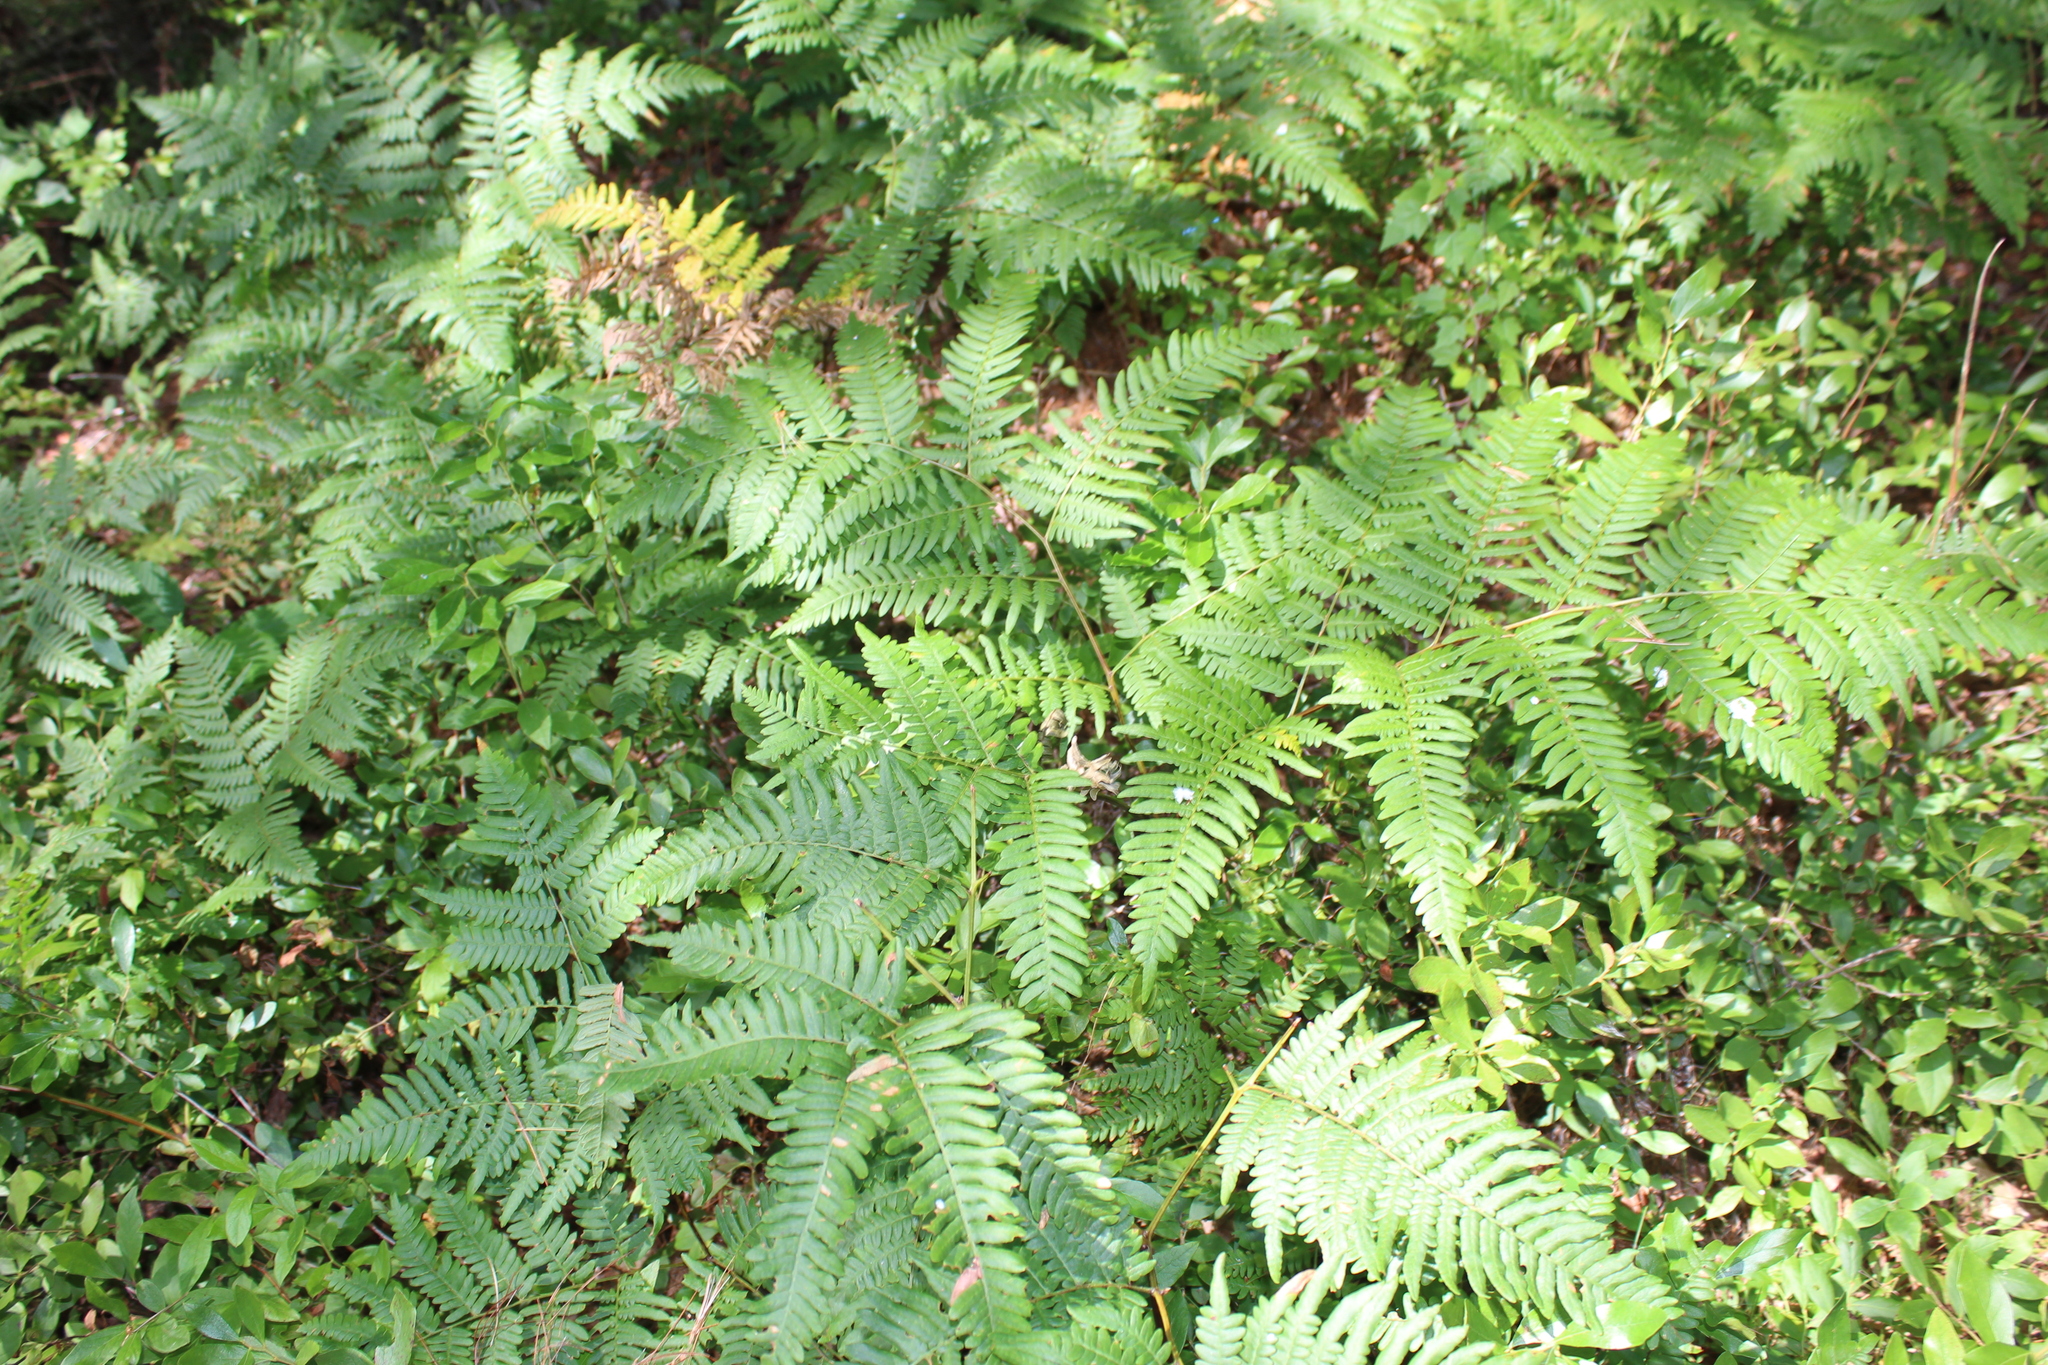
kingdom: Plantae
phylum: Tracheophyta
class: Polypodiopsida
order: Polypodiales
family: Dennstaedtiaceae
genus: Pteridium
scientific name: Pteridium aquilinum
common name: Bracken
